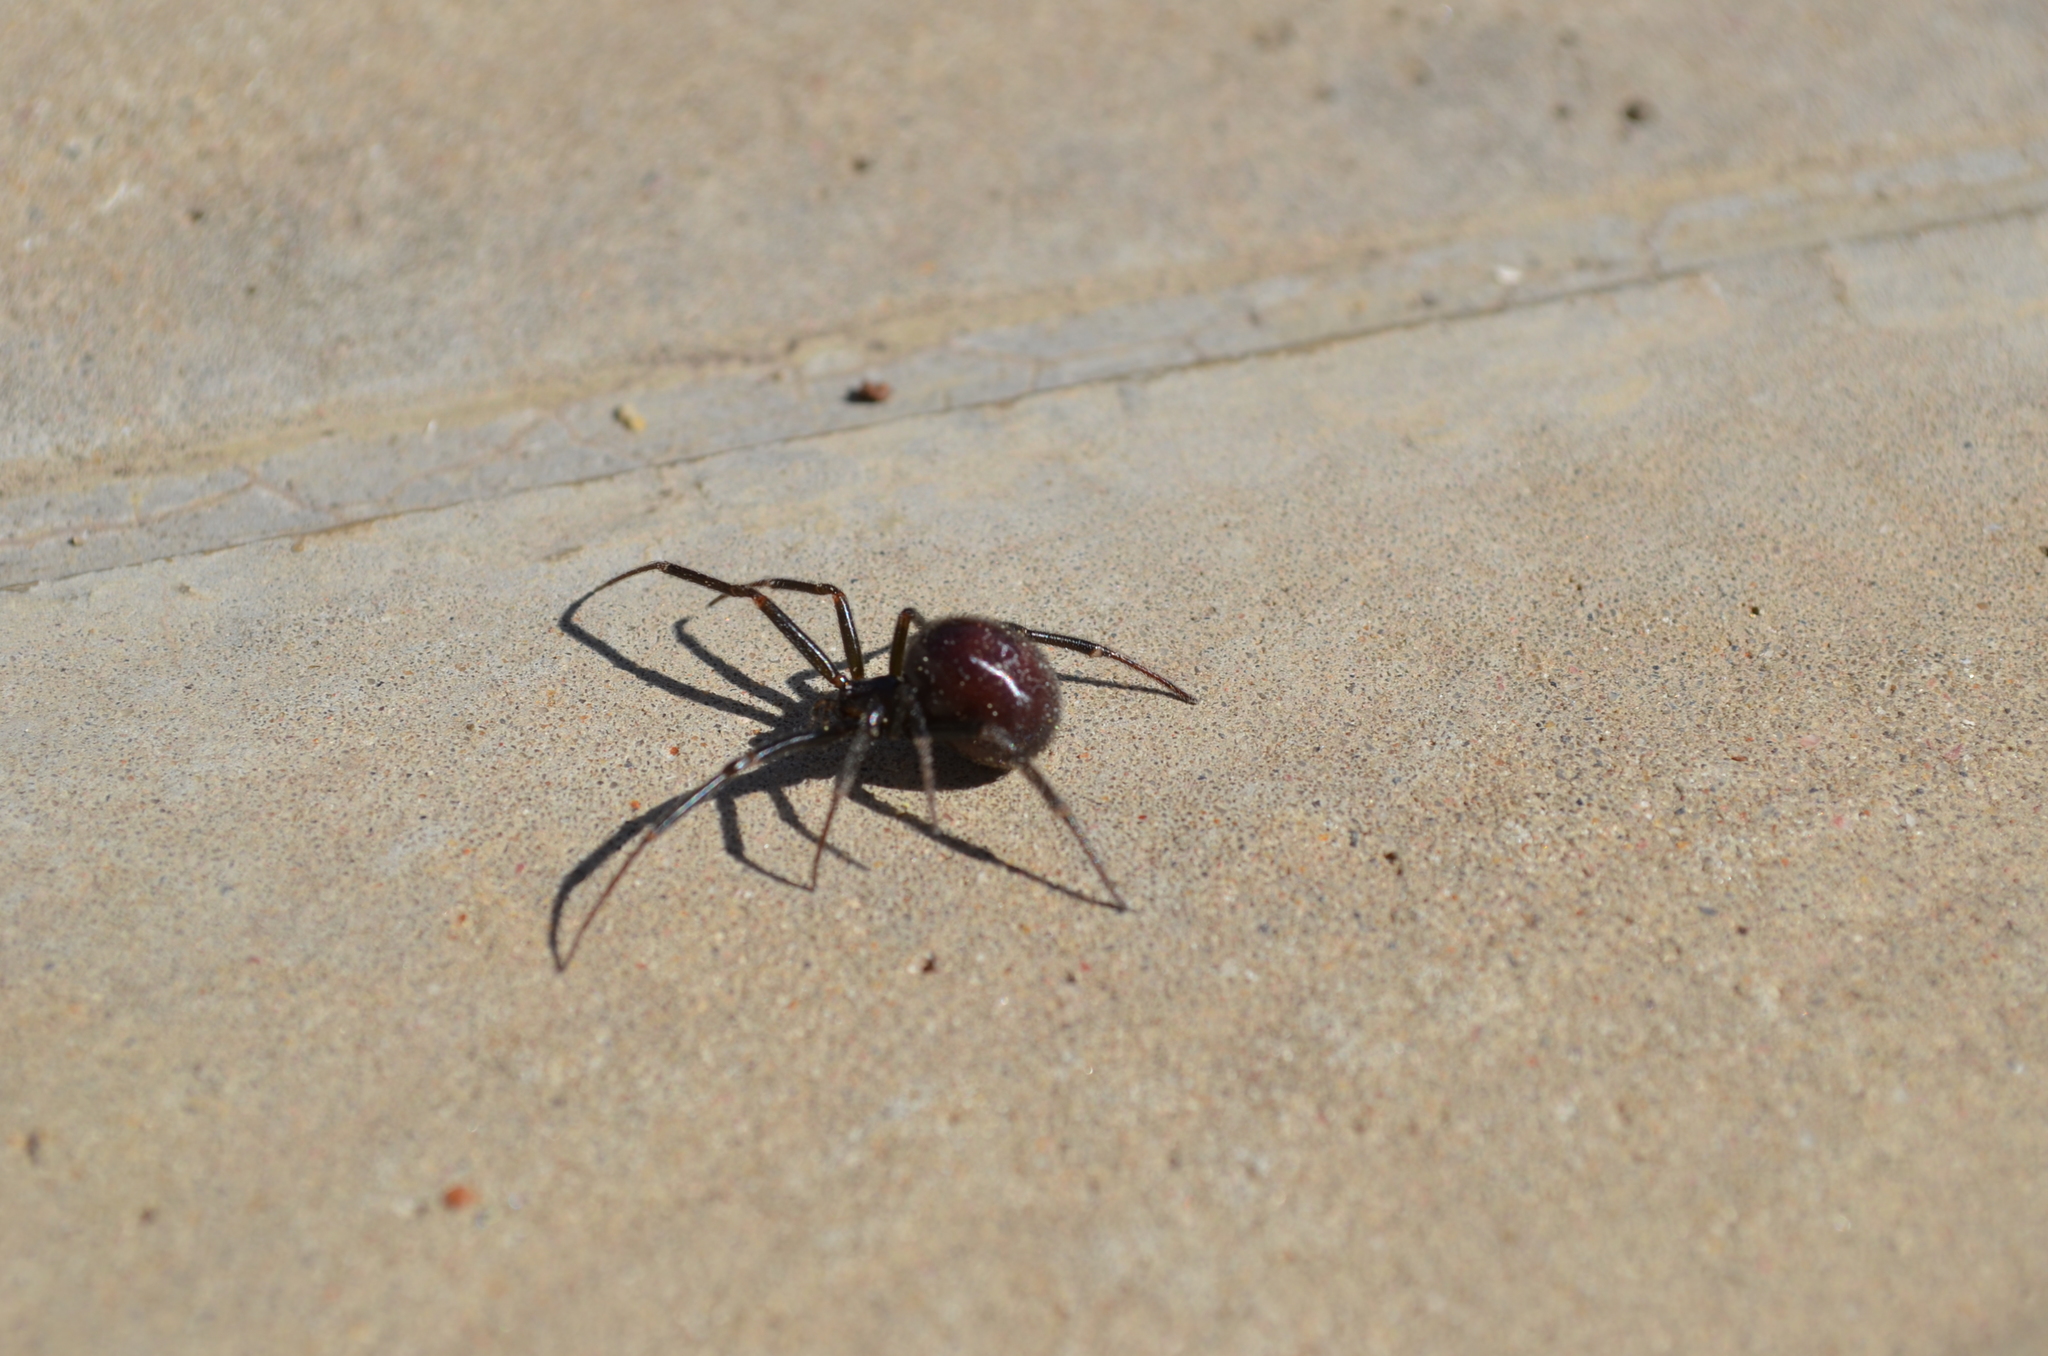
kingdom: Animalia
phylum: Arthropoda
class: Arachnida
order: Araneae
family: Theridiidae
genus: Steatoda
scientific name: Steatoda grossa
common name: False black widow
